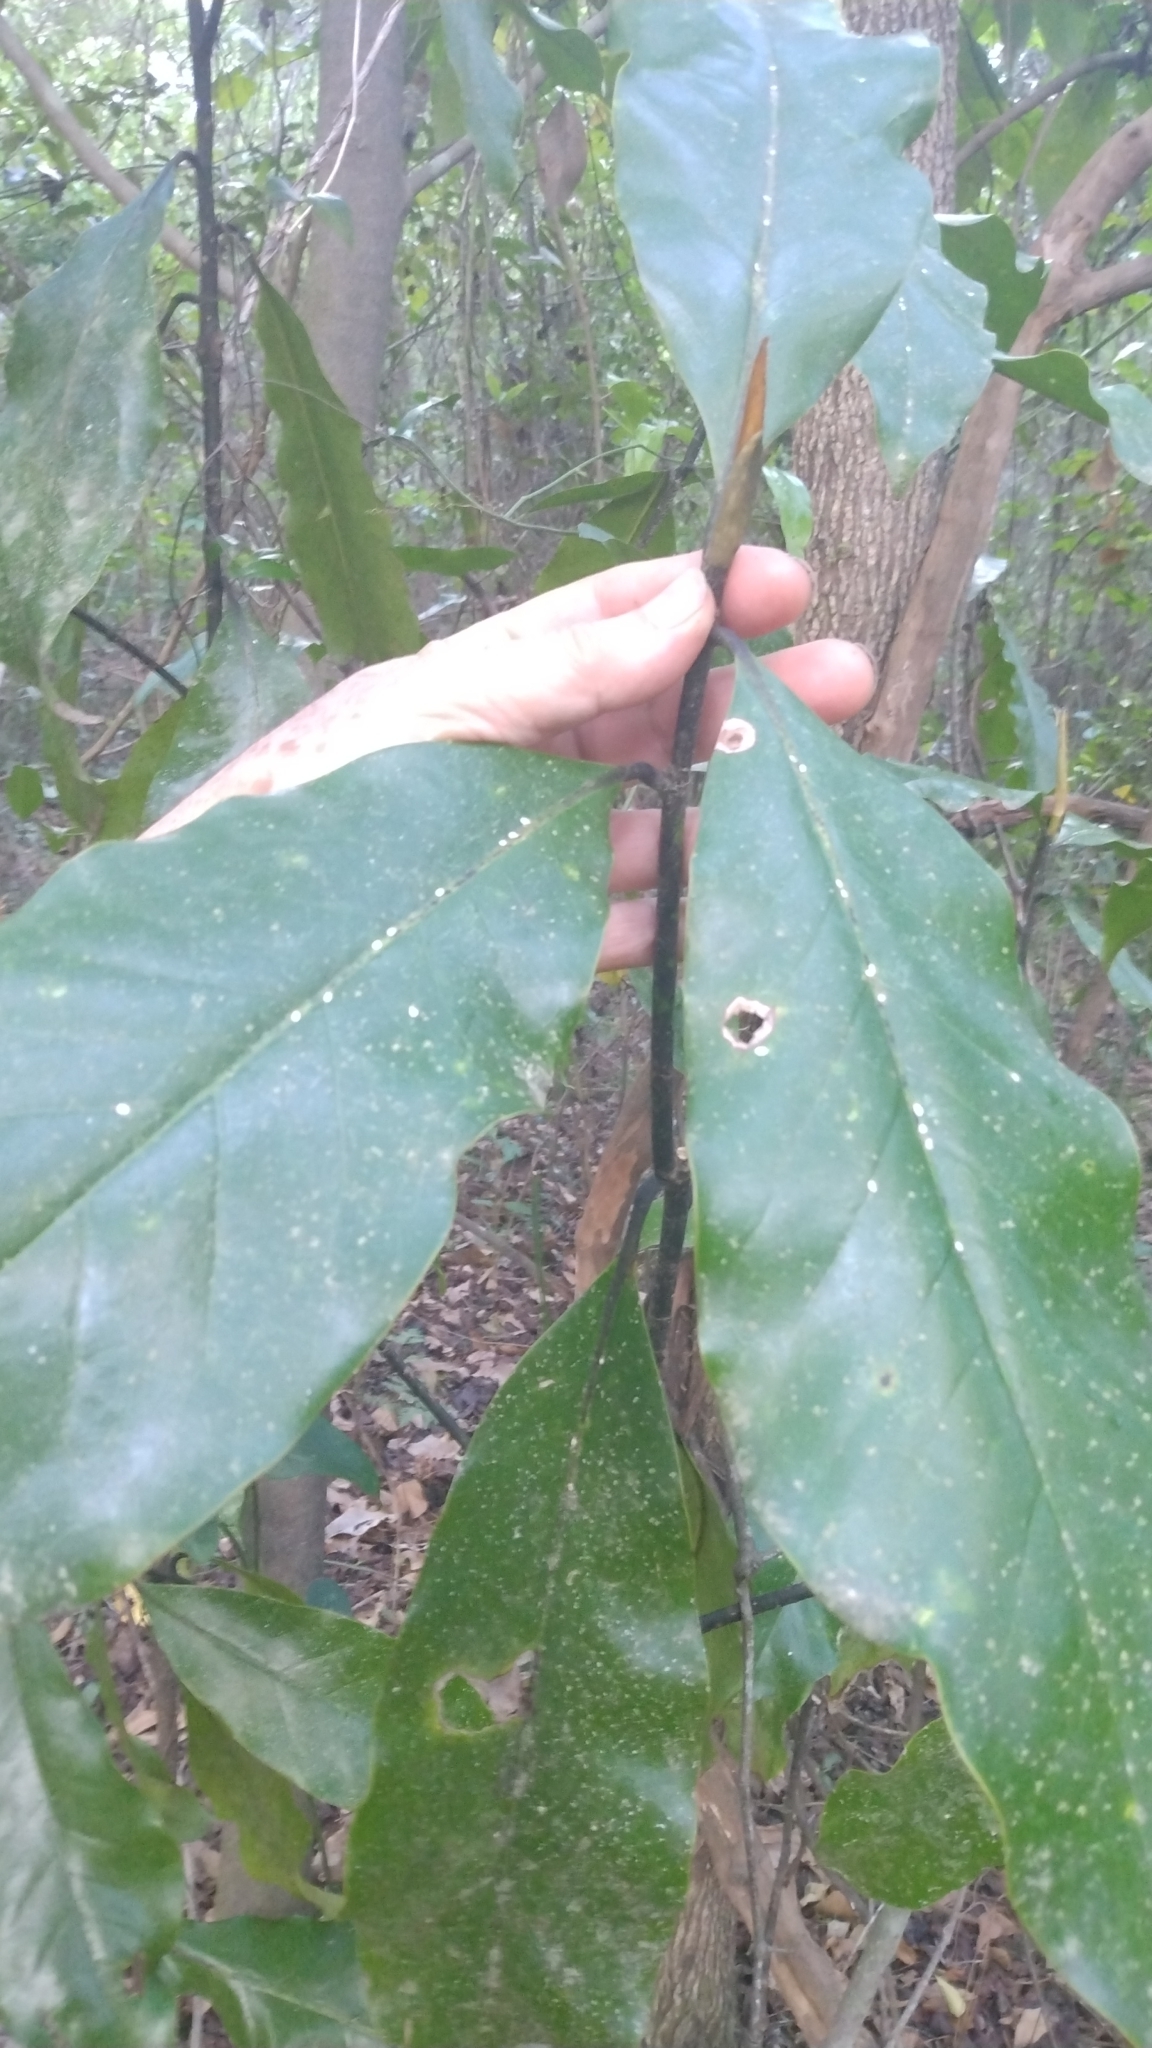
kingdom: Plantae
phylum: Tracheophyta
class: Magnoliopsida
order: Magnoliales
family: Magnoliaceae
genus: Magnolia
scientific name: Magnolia grandiflora
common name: Southern magnolia
